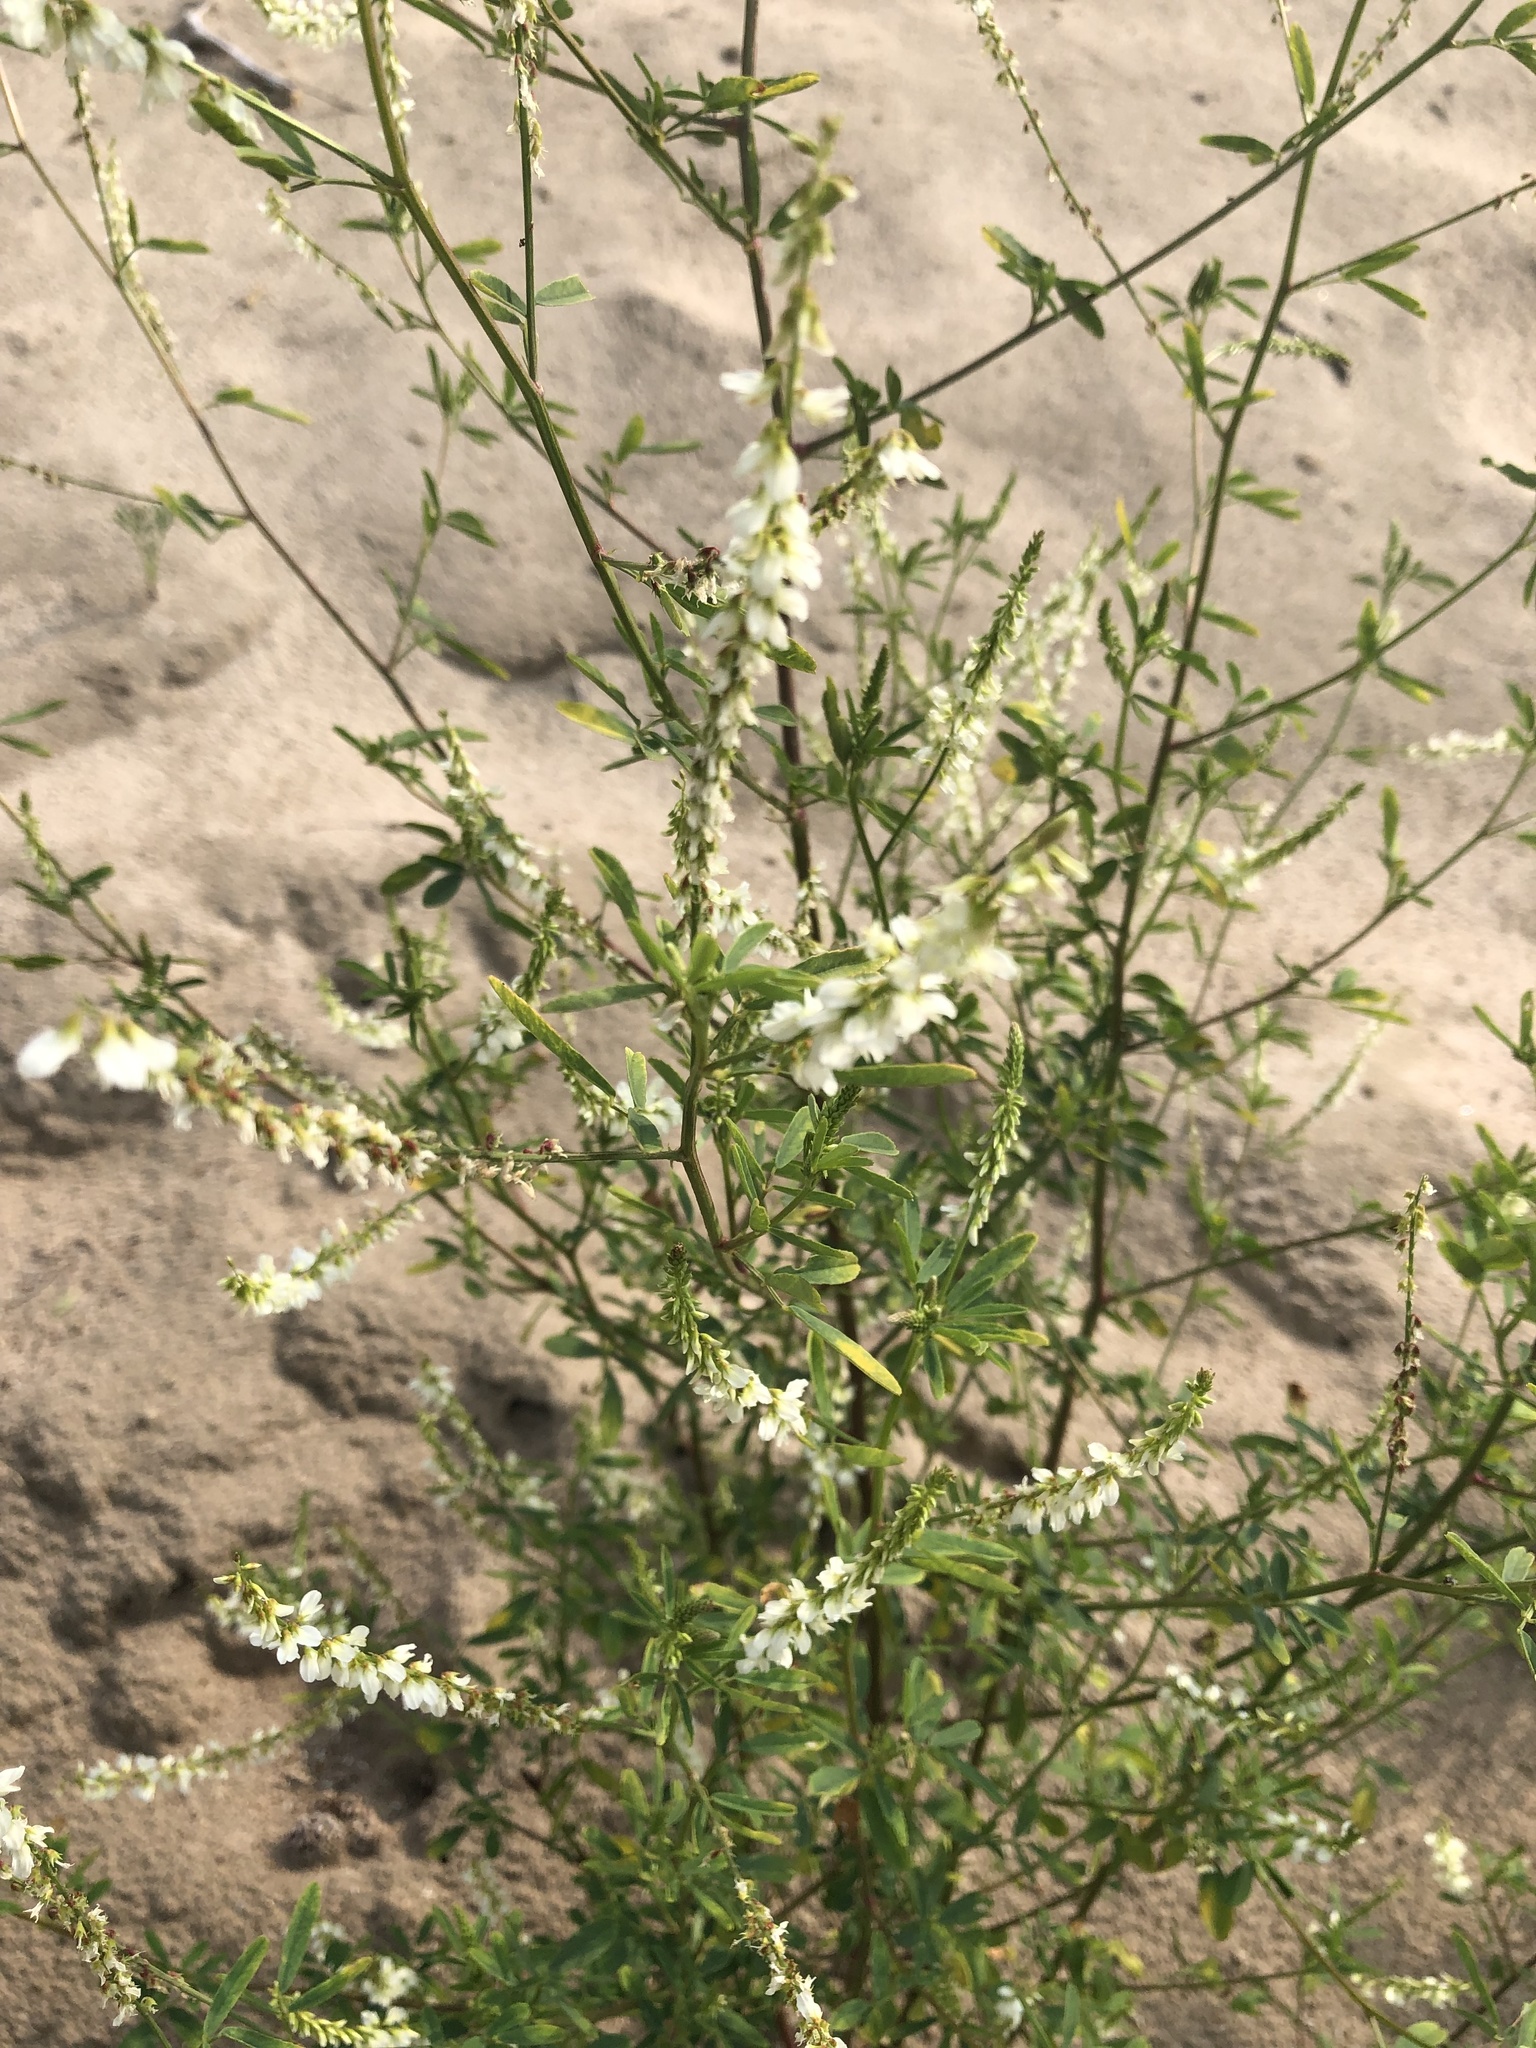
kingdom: Plantae
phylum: Tracheophyta
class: Magnoliopsida
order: Fabales
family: Fabaceae
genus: Melilotus
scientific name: Melilotus albus
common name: White melilot
